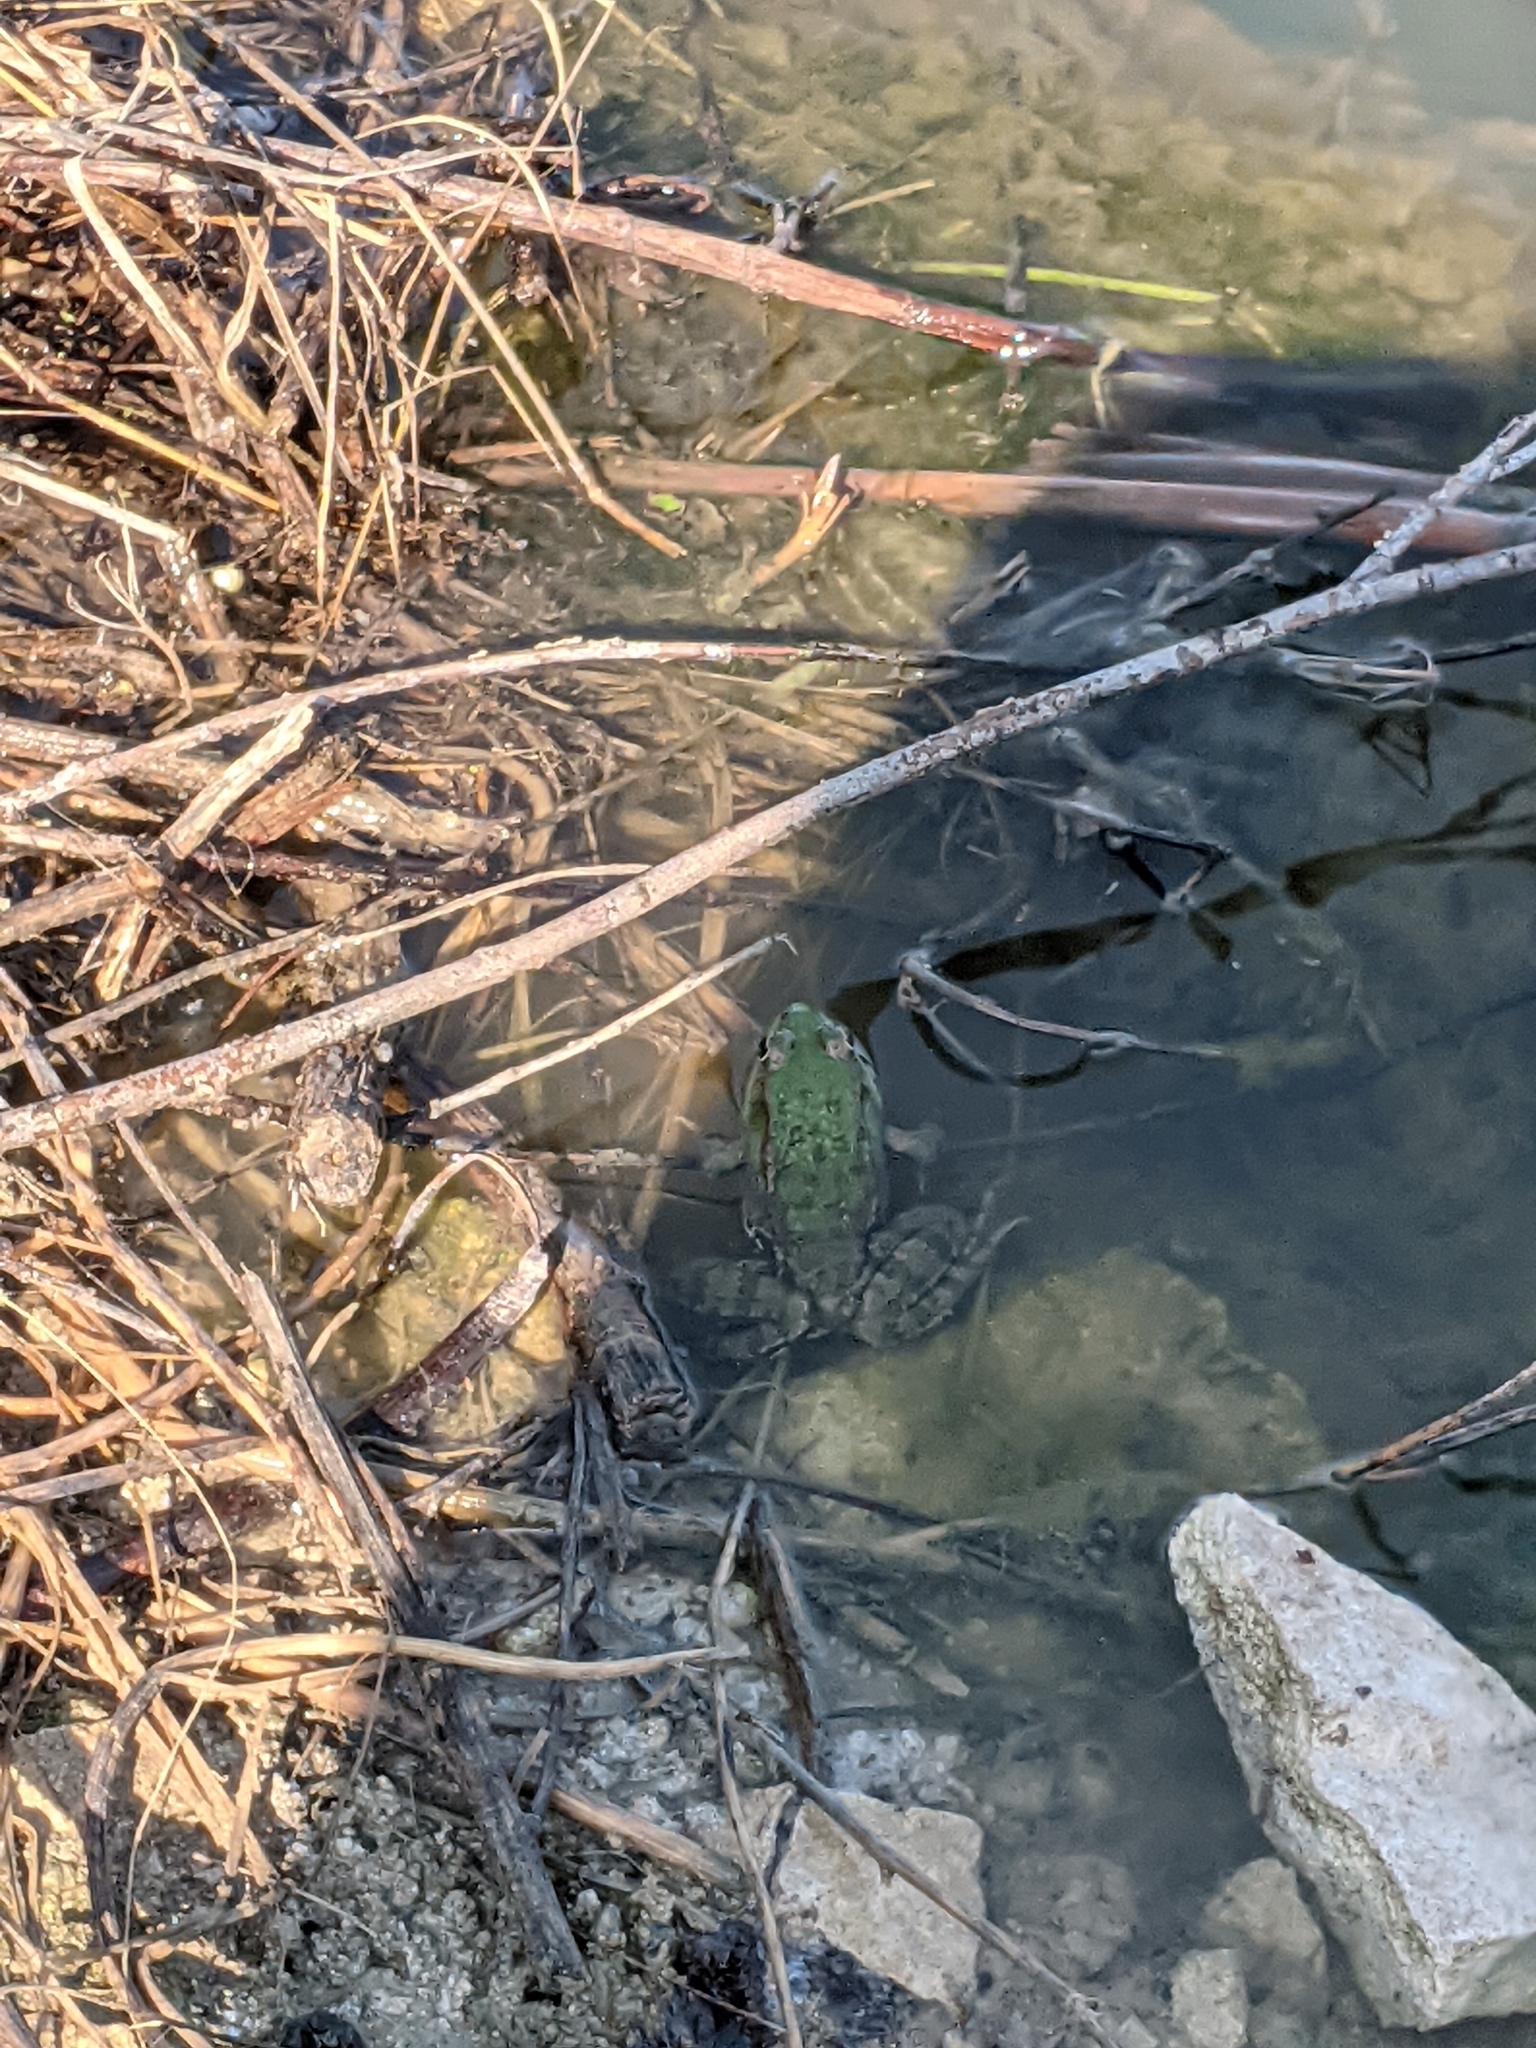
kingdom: Animalia
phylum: Chordata
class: Amphibia
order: Anura
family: Ranidae
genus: Pelophylax
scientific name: Pelophylax ridibundus
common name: Marsh frog
